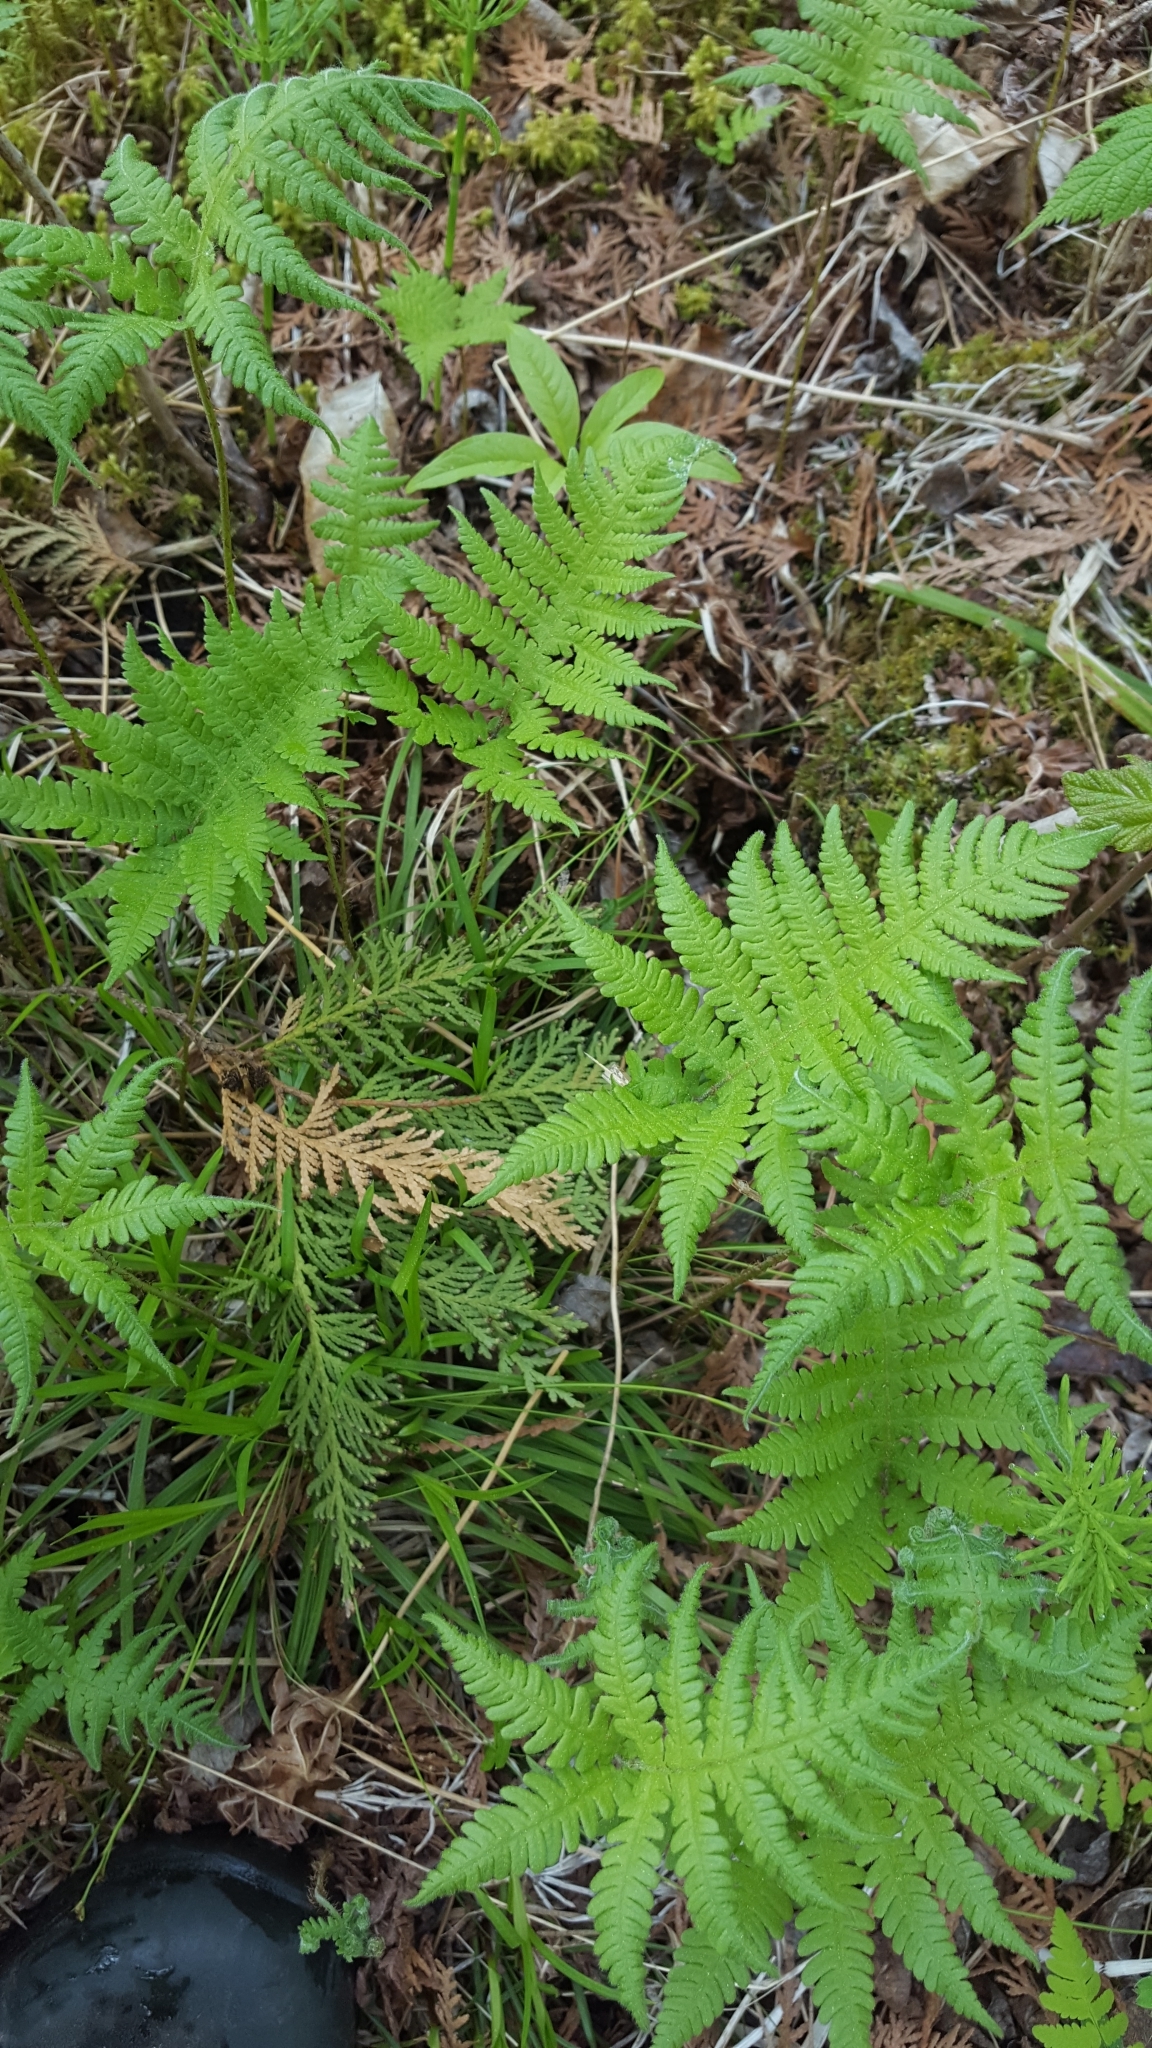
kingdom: Plantae
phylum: Tracheophyta
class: Polypodiopsida
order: Polypodiales
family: Thelypteridaceae
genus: Phegopteris
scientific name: Phegopteris connectilis
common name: Beech fern
